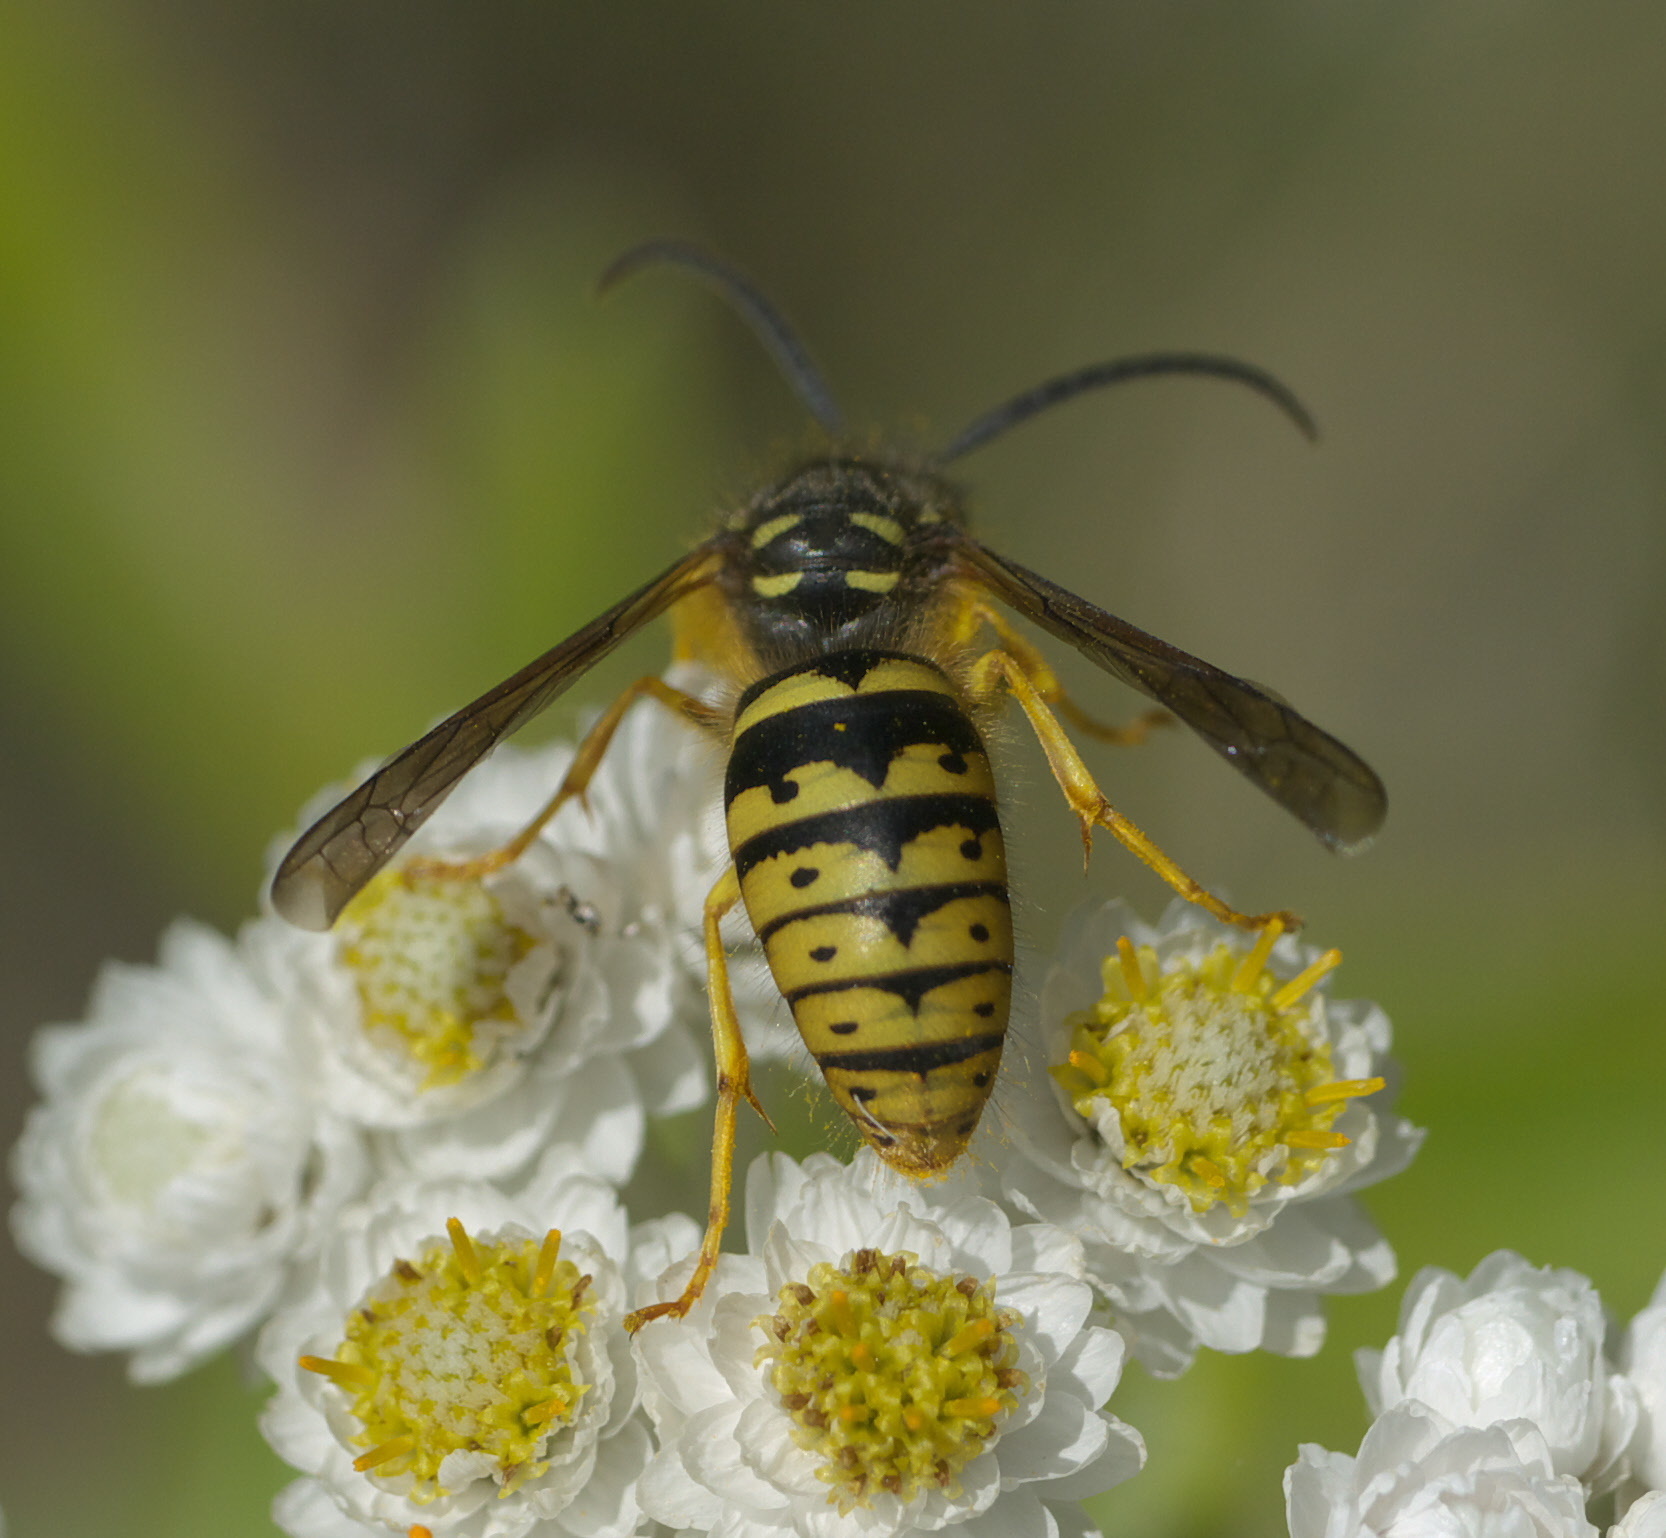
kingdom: Animalia
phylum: Arthropoda
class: Insecta
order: Hymenoptera
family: Vespidae
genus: Dolichovespula
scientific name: Dolichovespula arenaria
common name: Aerial yellowjacket
